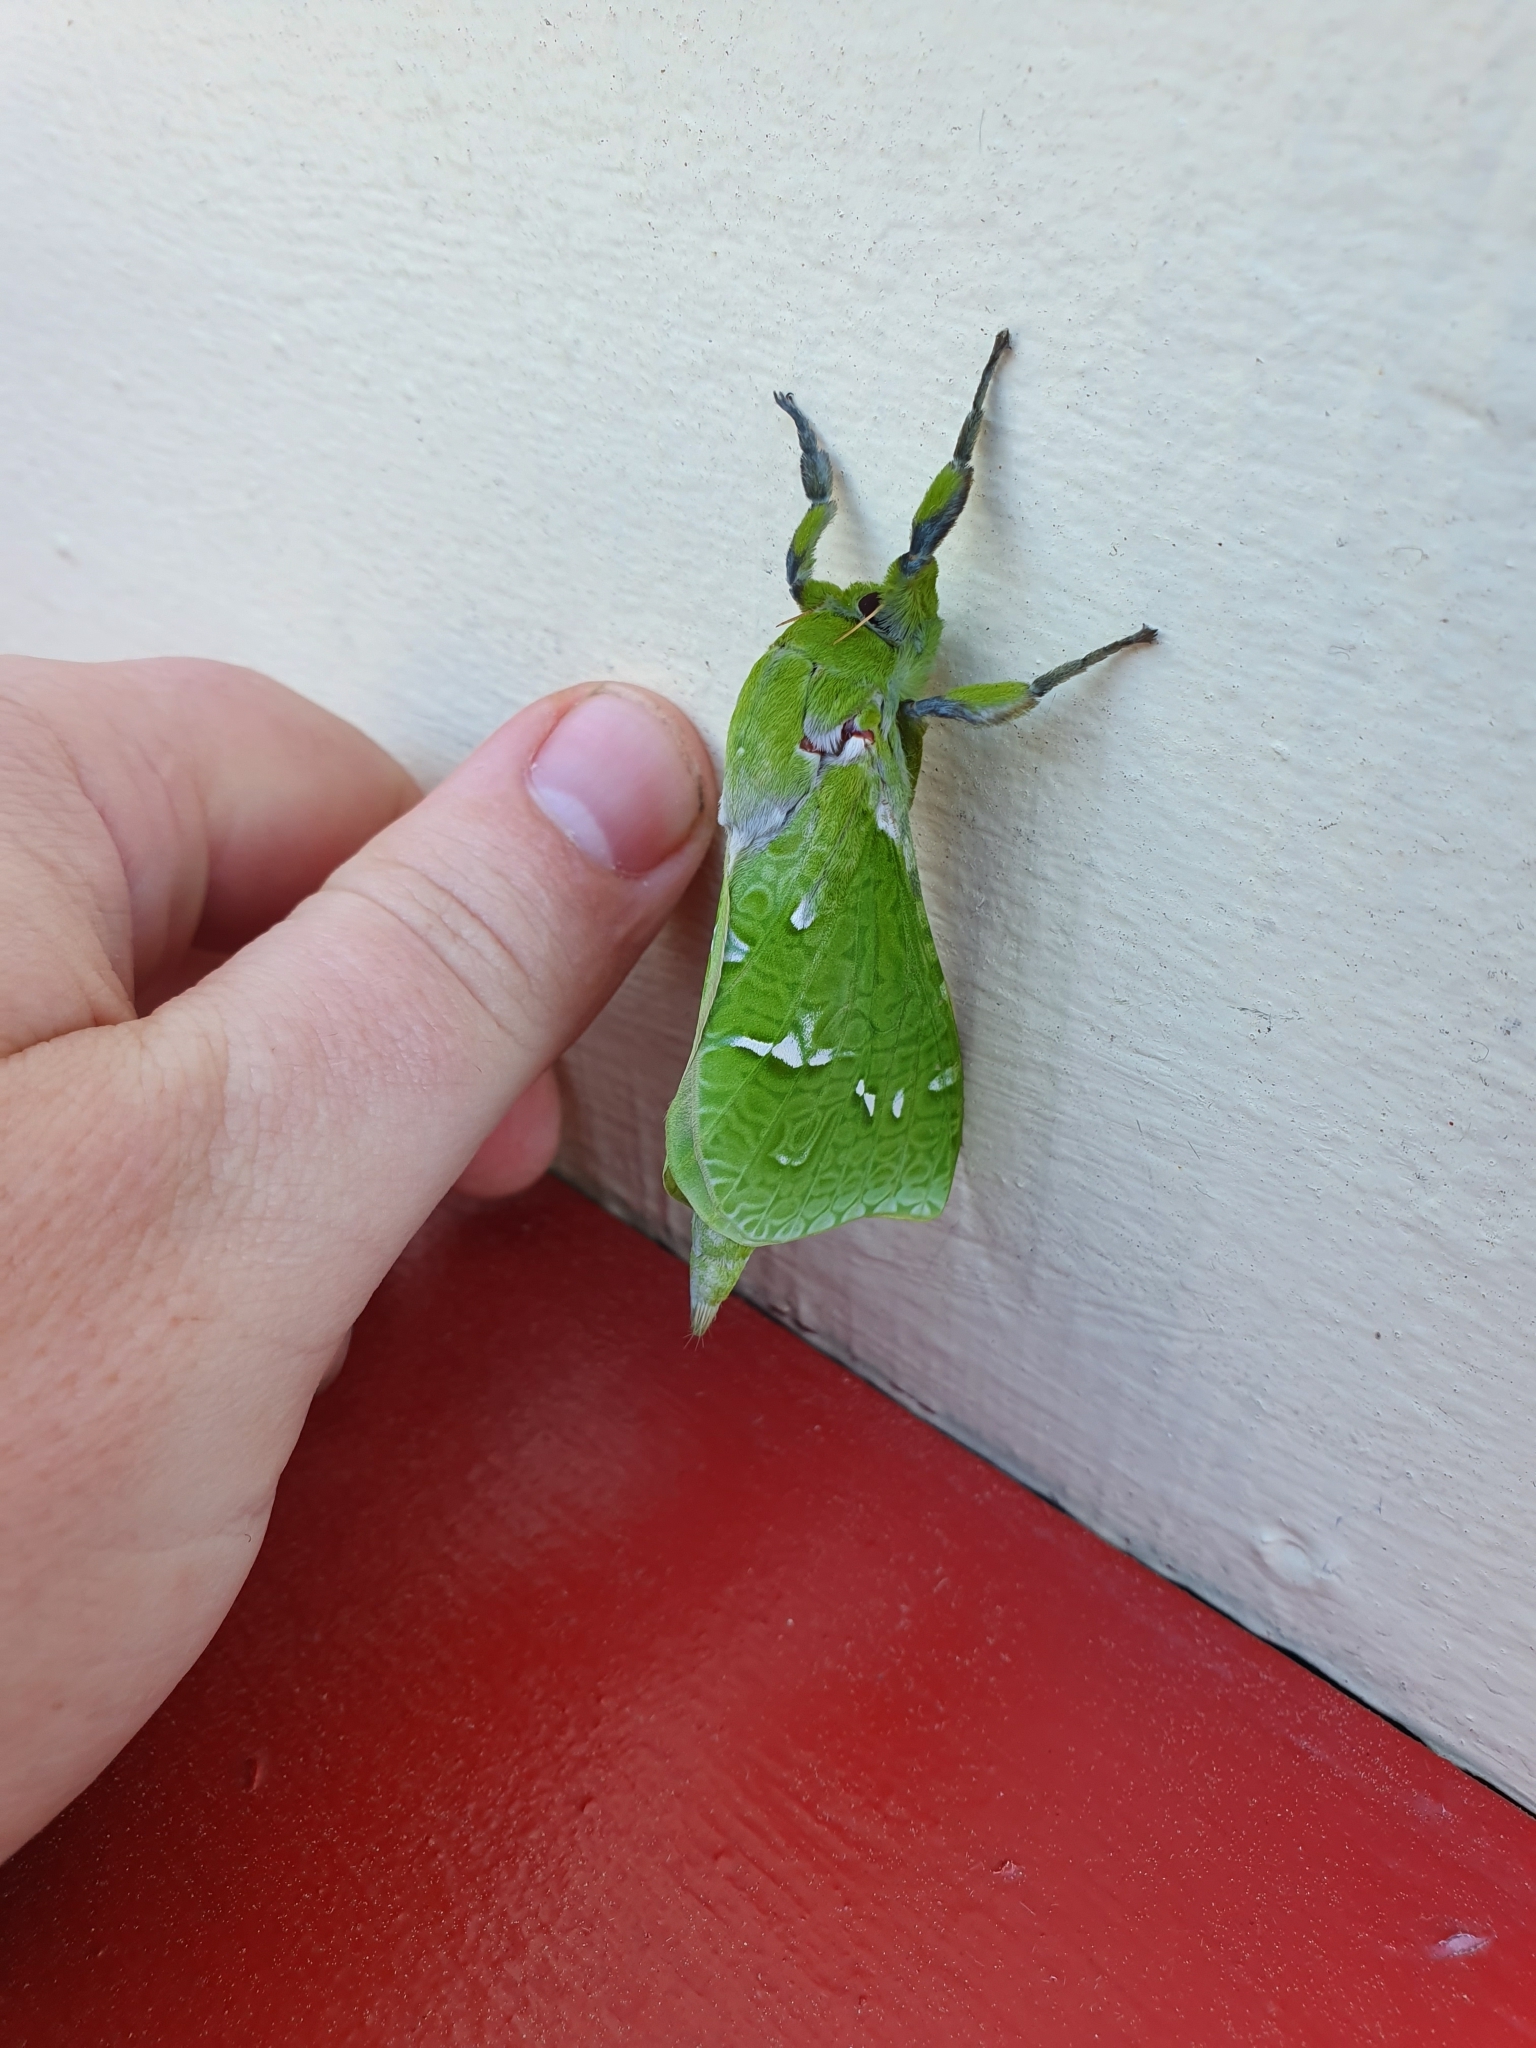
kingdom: Animalia
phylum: Arthropoda
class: Insecta
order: Lepidoptera
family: Hepialidae
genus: Aenetus
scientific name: Aenetus virescens
